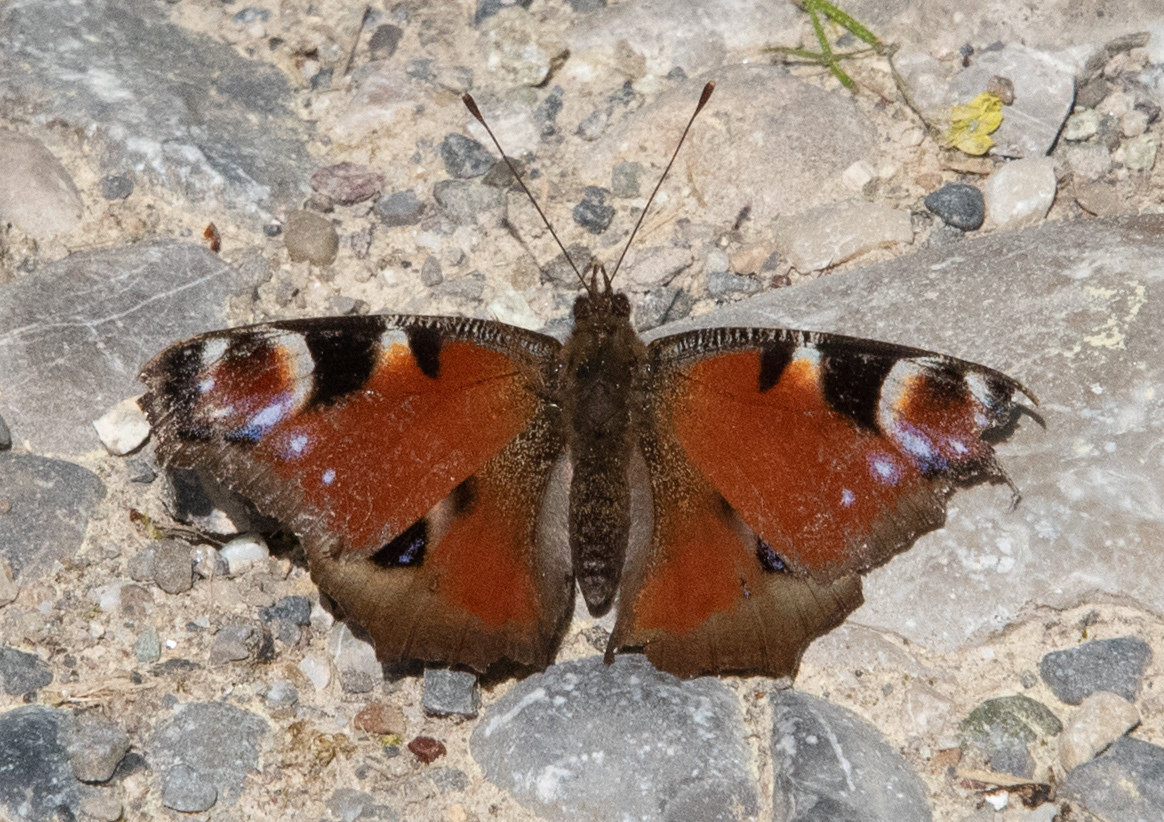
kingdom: Animalia
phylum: Arthropoda
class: Insecta
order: Lepidoptera
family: Nymphalidae
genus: Aglais
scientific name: Aglais io
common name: Peacock
